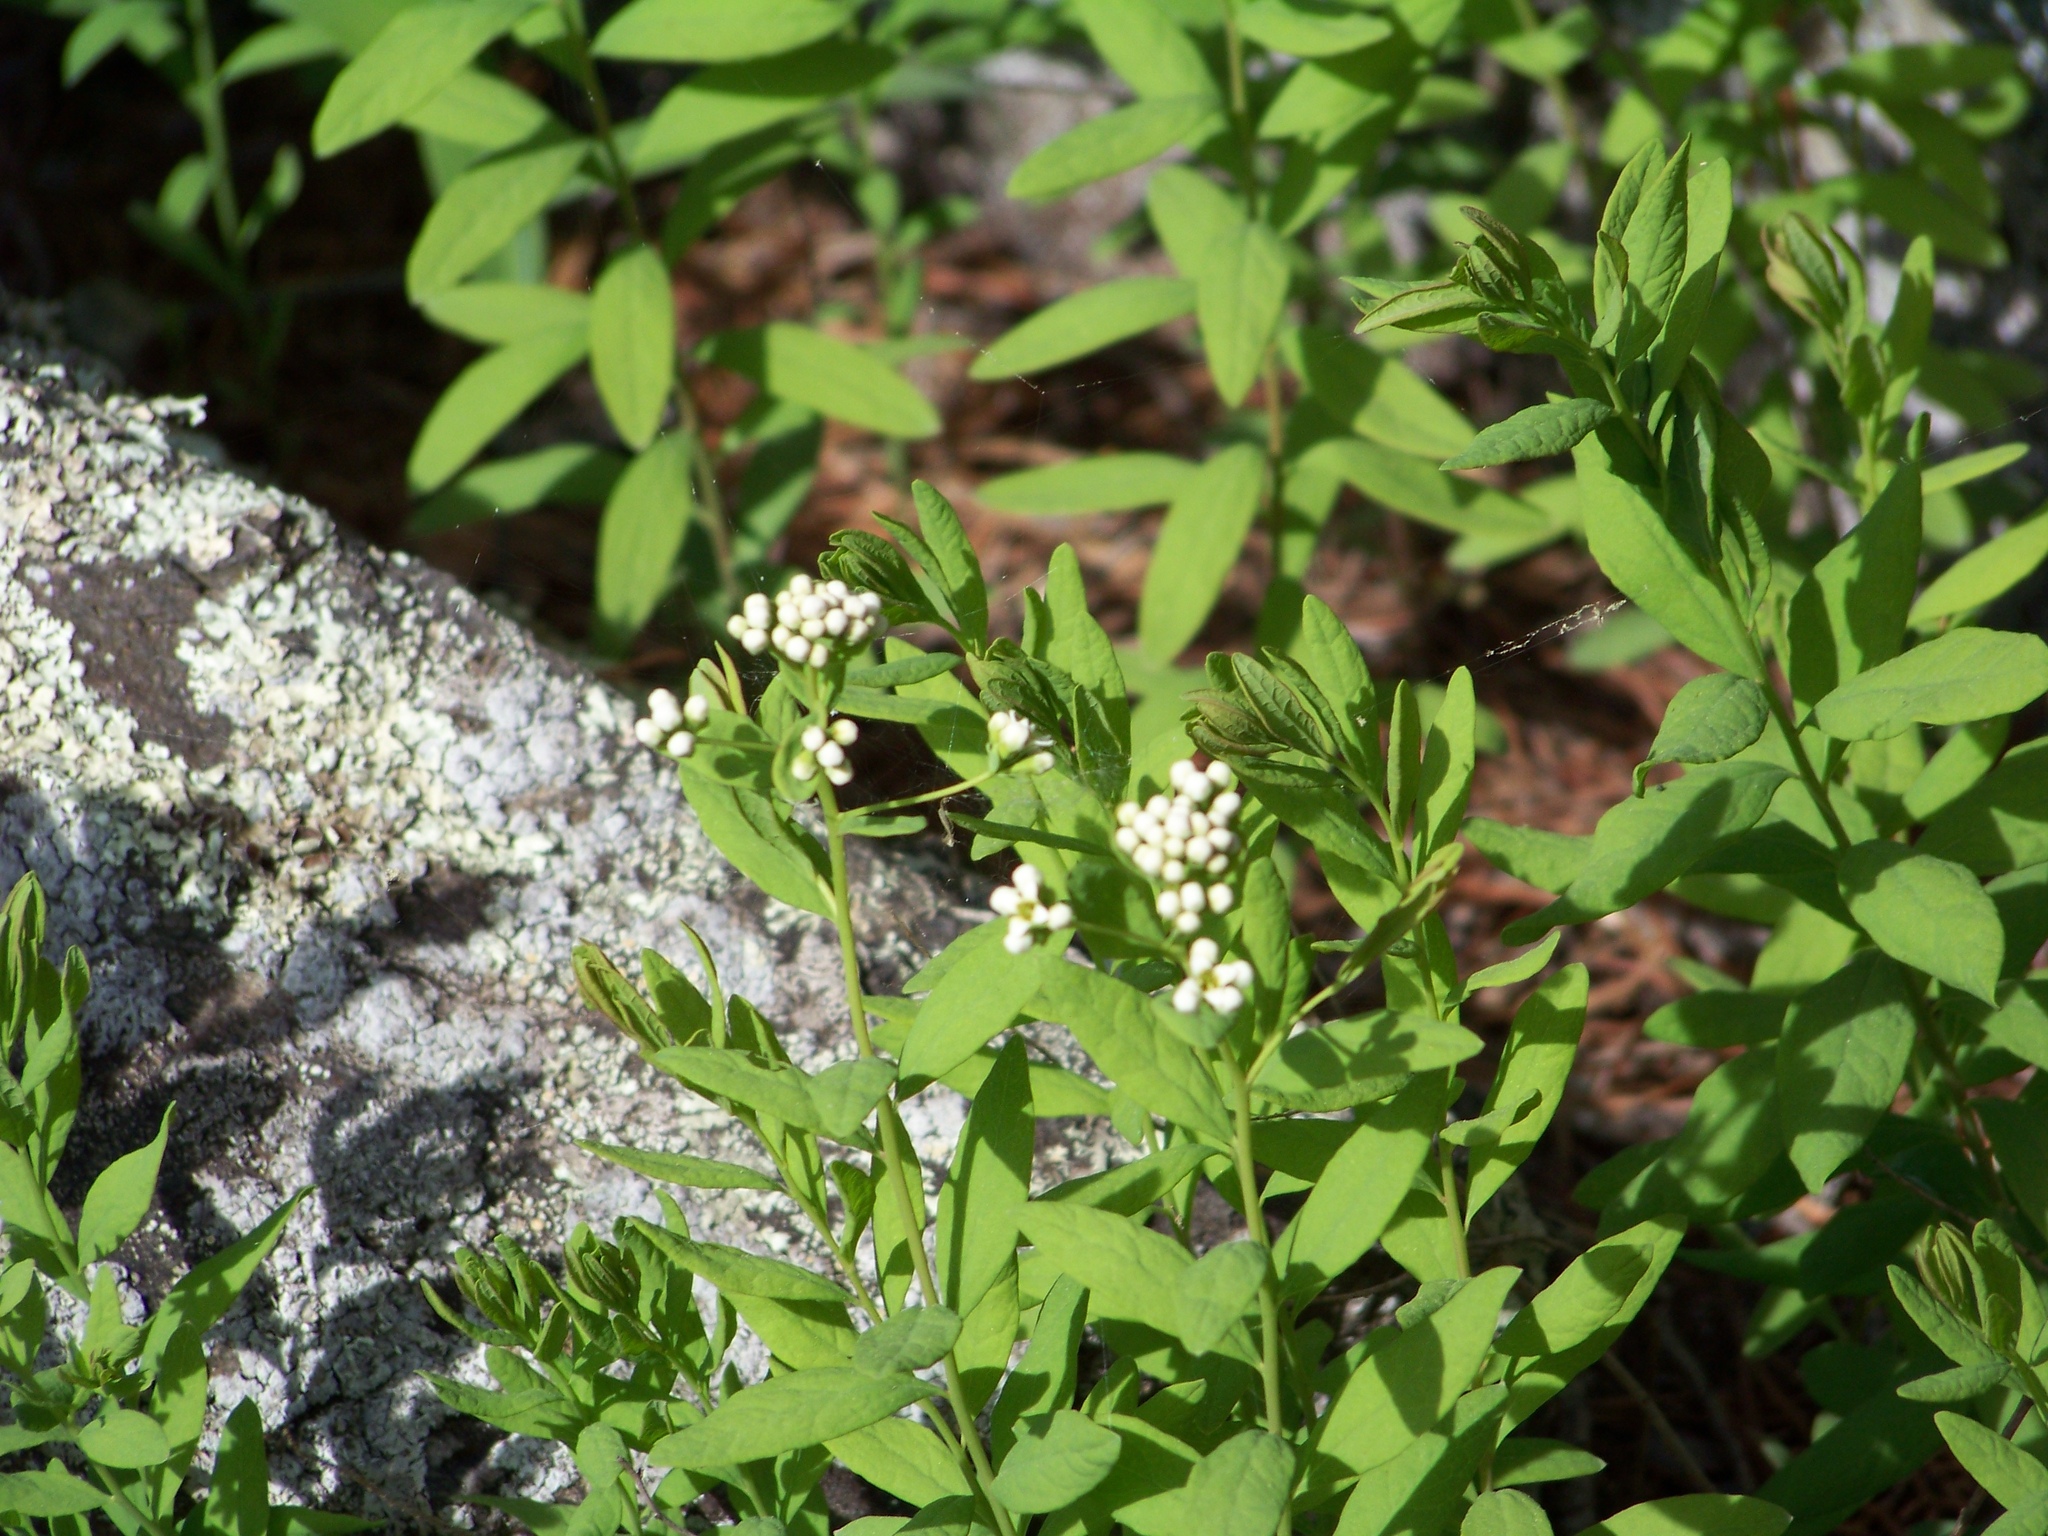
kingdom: Plantae
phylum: Tracheophyta
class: Magnoliopsida
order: Santalales
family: Comandraceae
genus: Comandra
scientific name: Comandra umbellata
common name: Bastard toadflax
